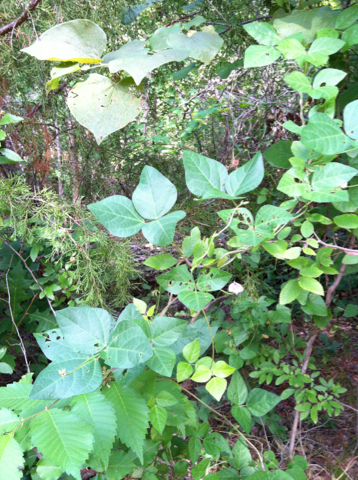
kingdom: Plantae
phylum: Tracheophyta
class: Magnoliopsida
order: Fabales
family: Fabaceae
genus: Strophostyles
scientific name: Strophostyles helvola
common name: Trailing wild bean
